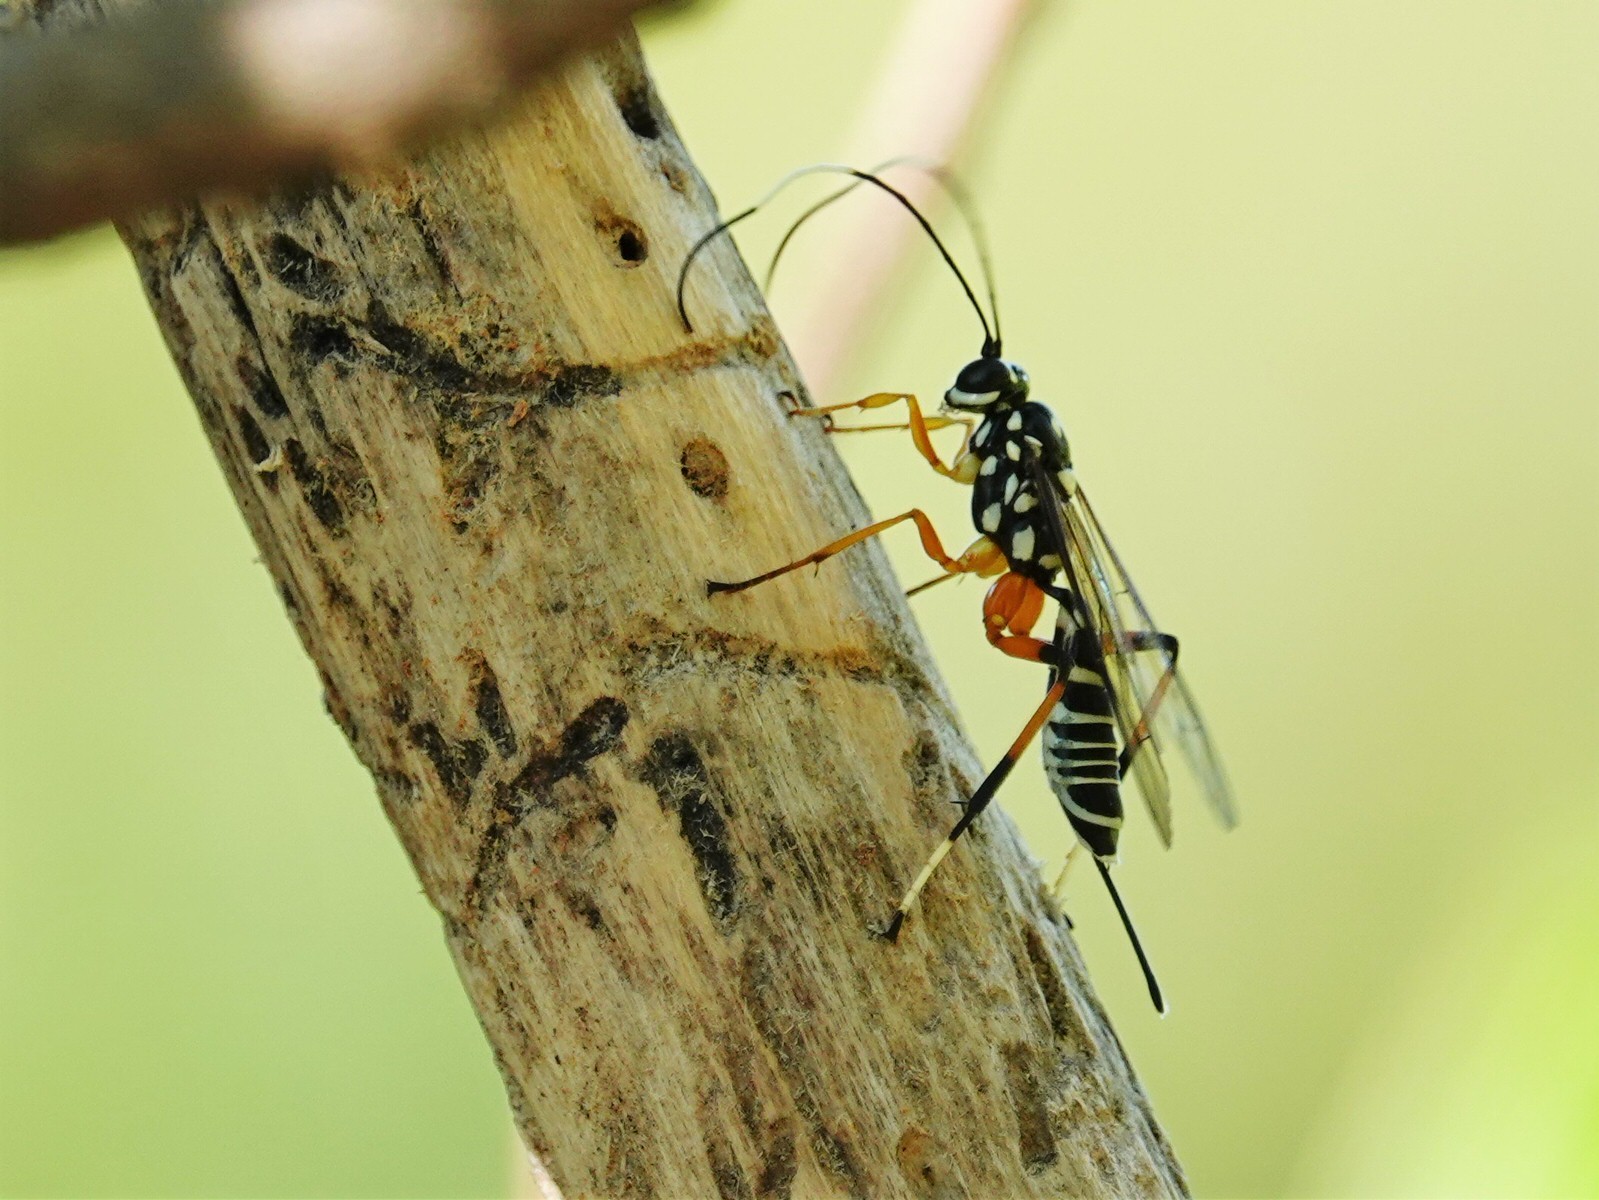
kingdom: Animalia
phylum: Arthropoda
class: Insecta
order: Hymenoptera
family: Ichneumonidae
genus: Xanthocryptus
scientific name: Xanthocryptus novozealandicus
